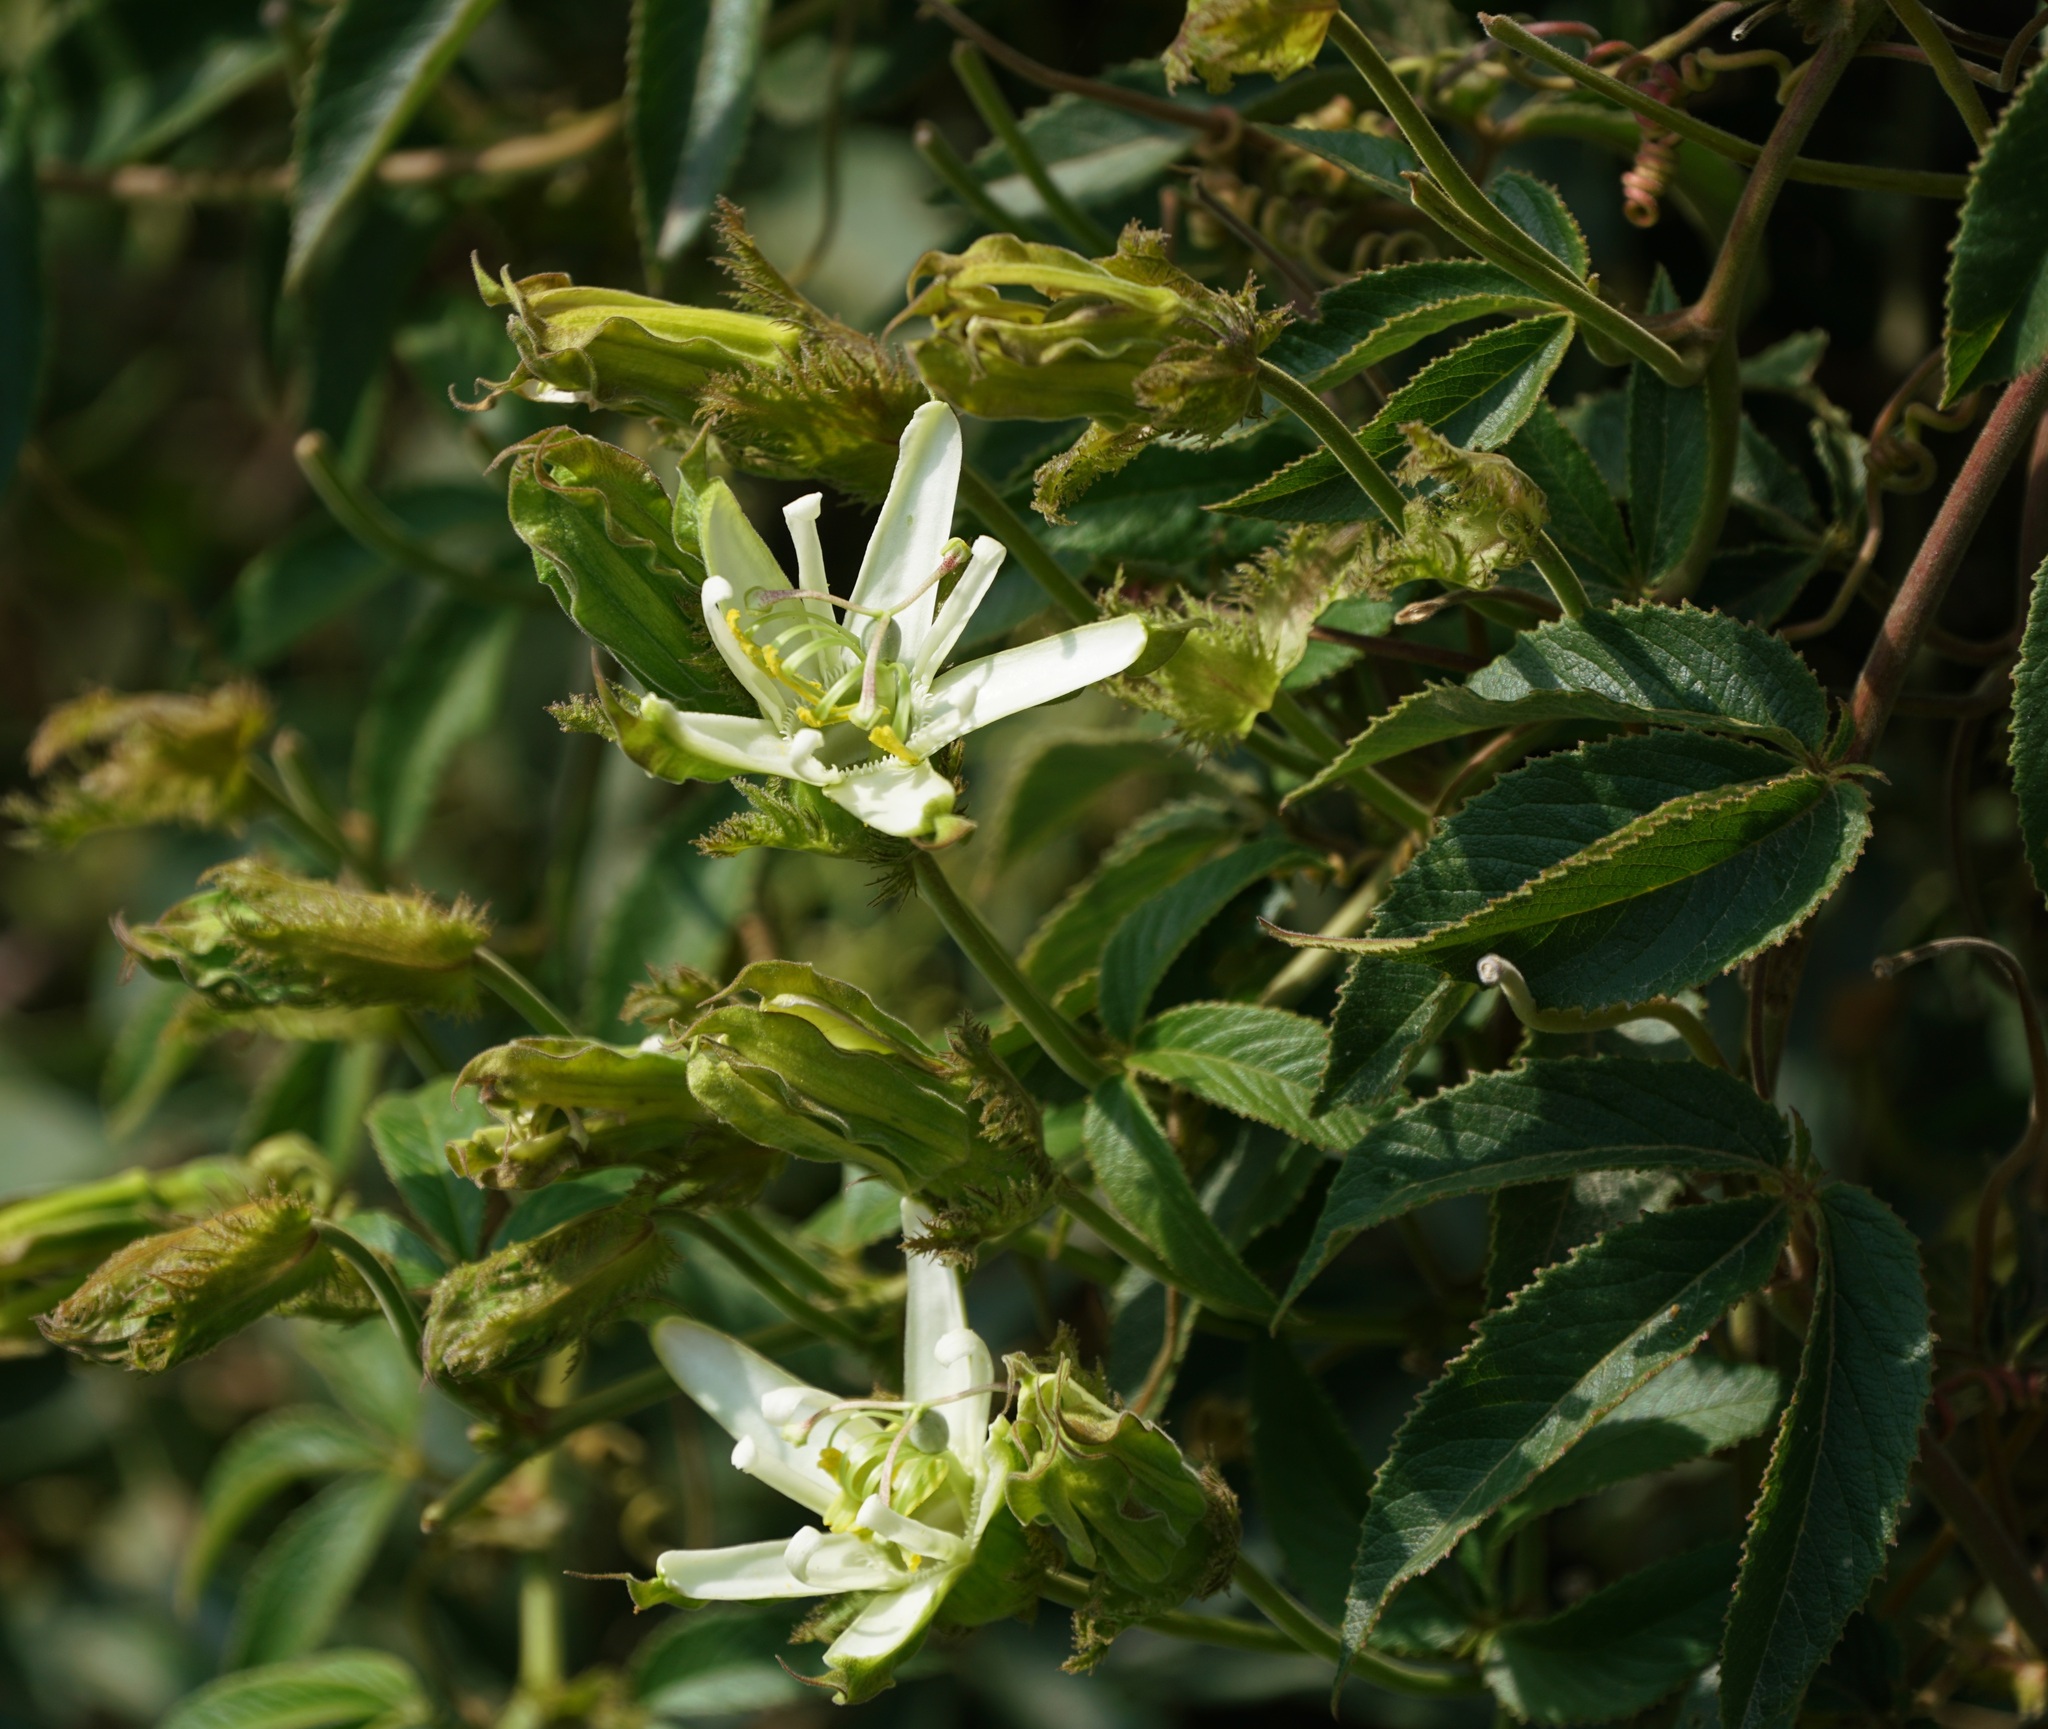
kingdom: Plantae
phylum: Tracheophyta
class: Magnoliopsida
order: Malpighiales
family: Passifloraceae
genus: Passiflora
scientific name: Passiflora trisecta
